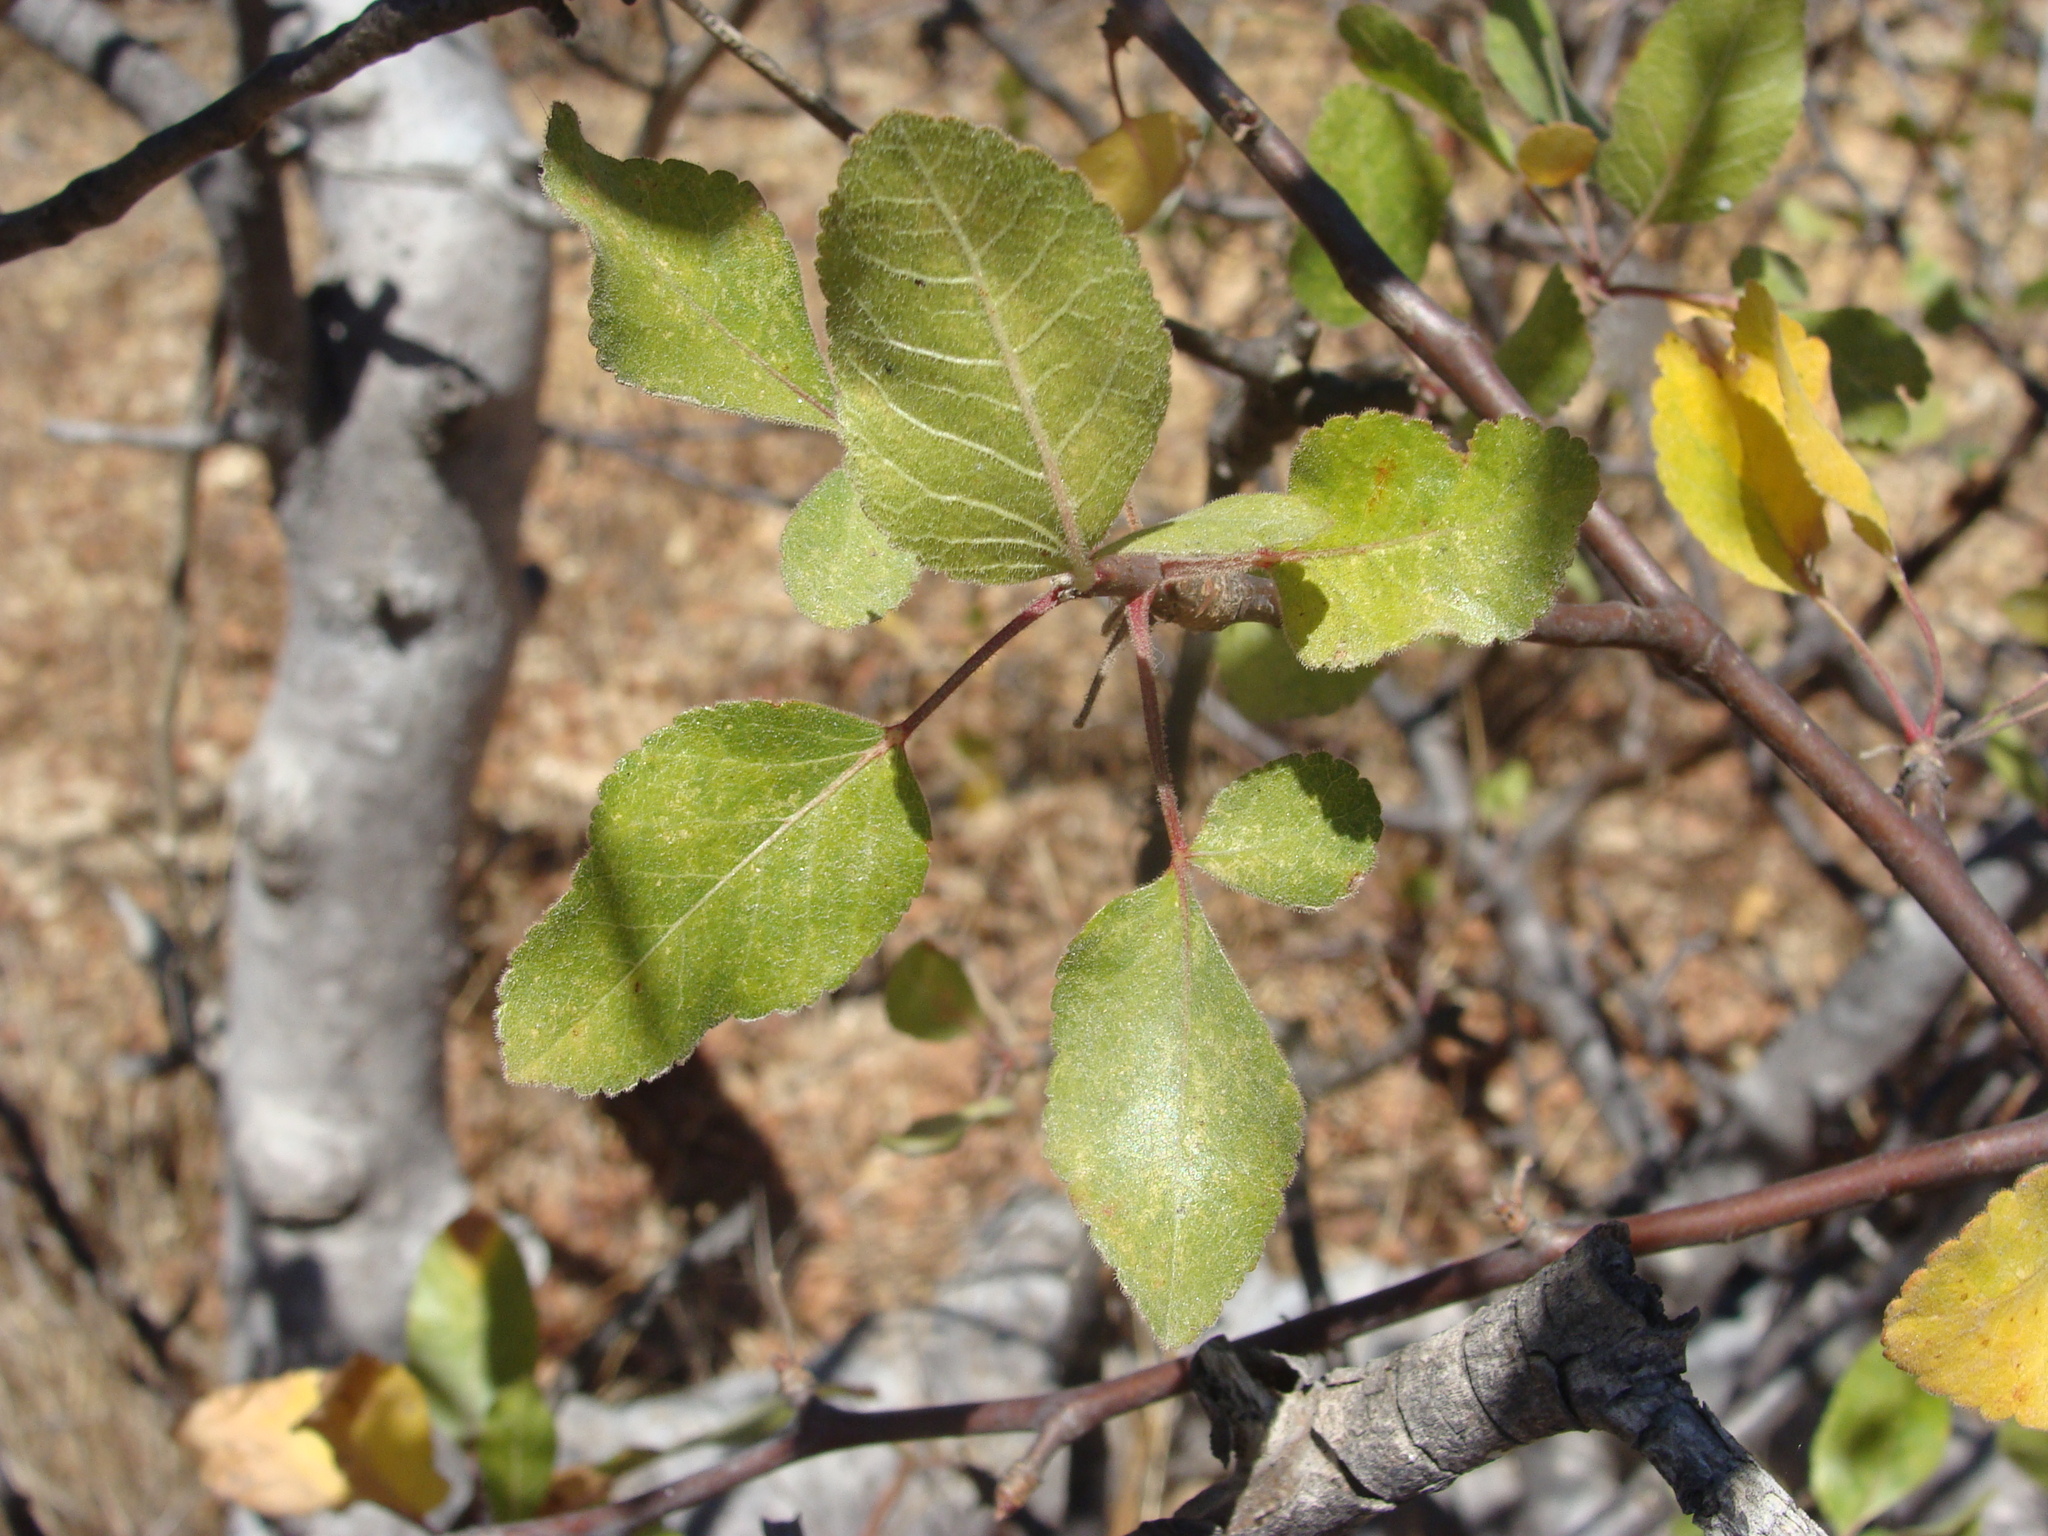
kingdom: Plantae
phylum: Tracheophyta
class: Magnoliopsida
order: Sapindales
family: Burseraceae
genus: Bursera
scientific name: Bursera epinnata
